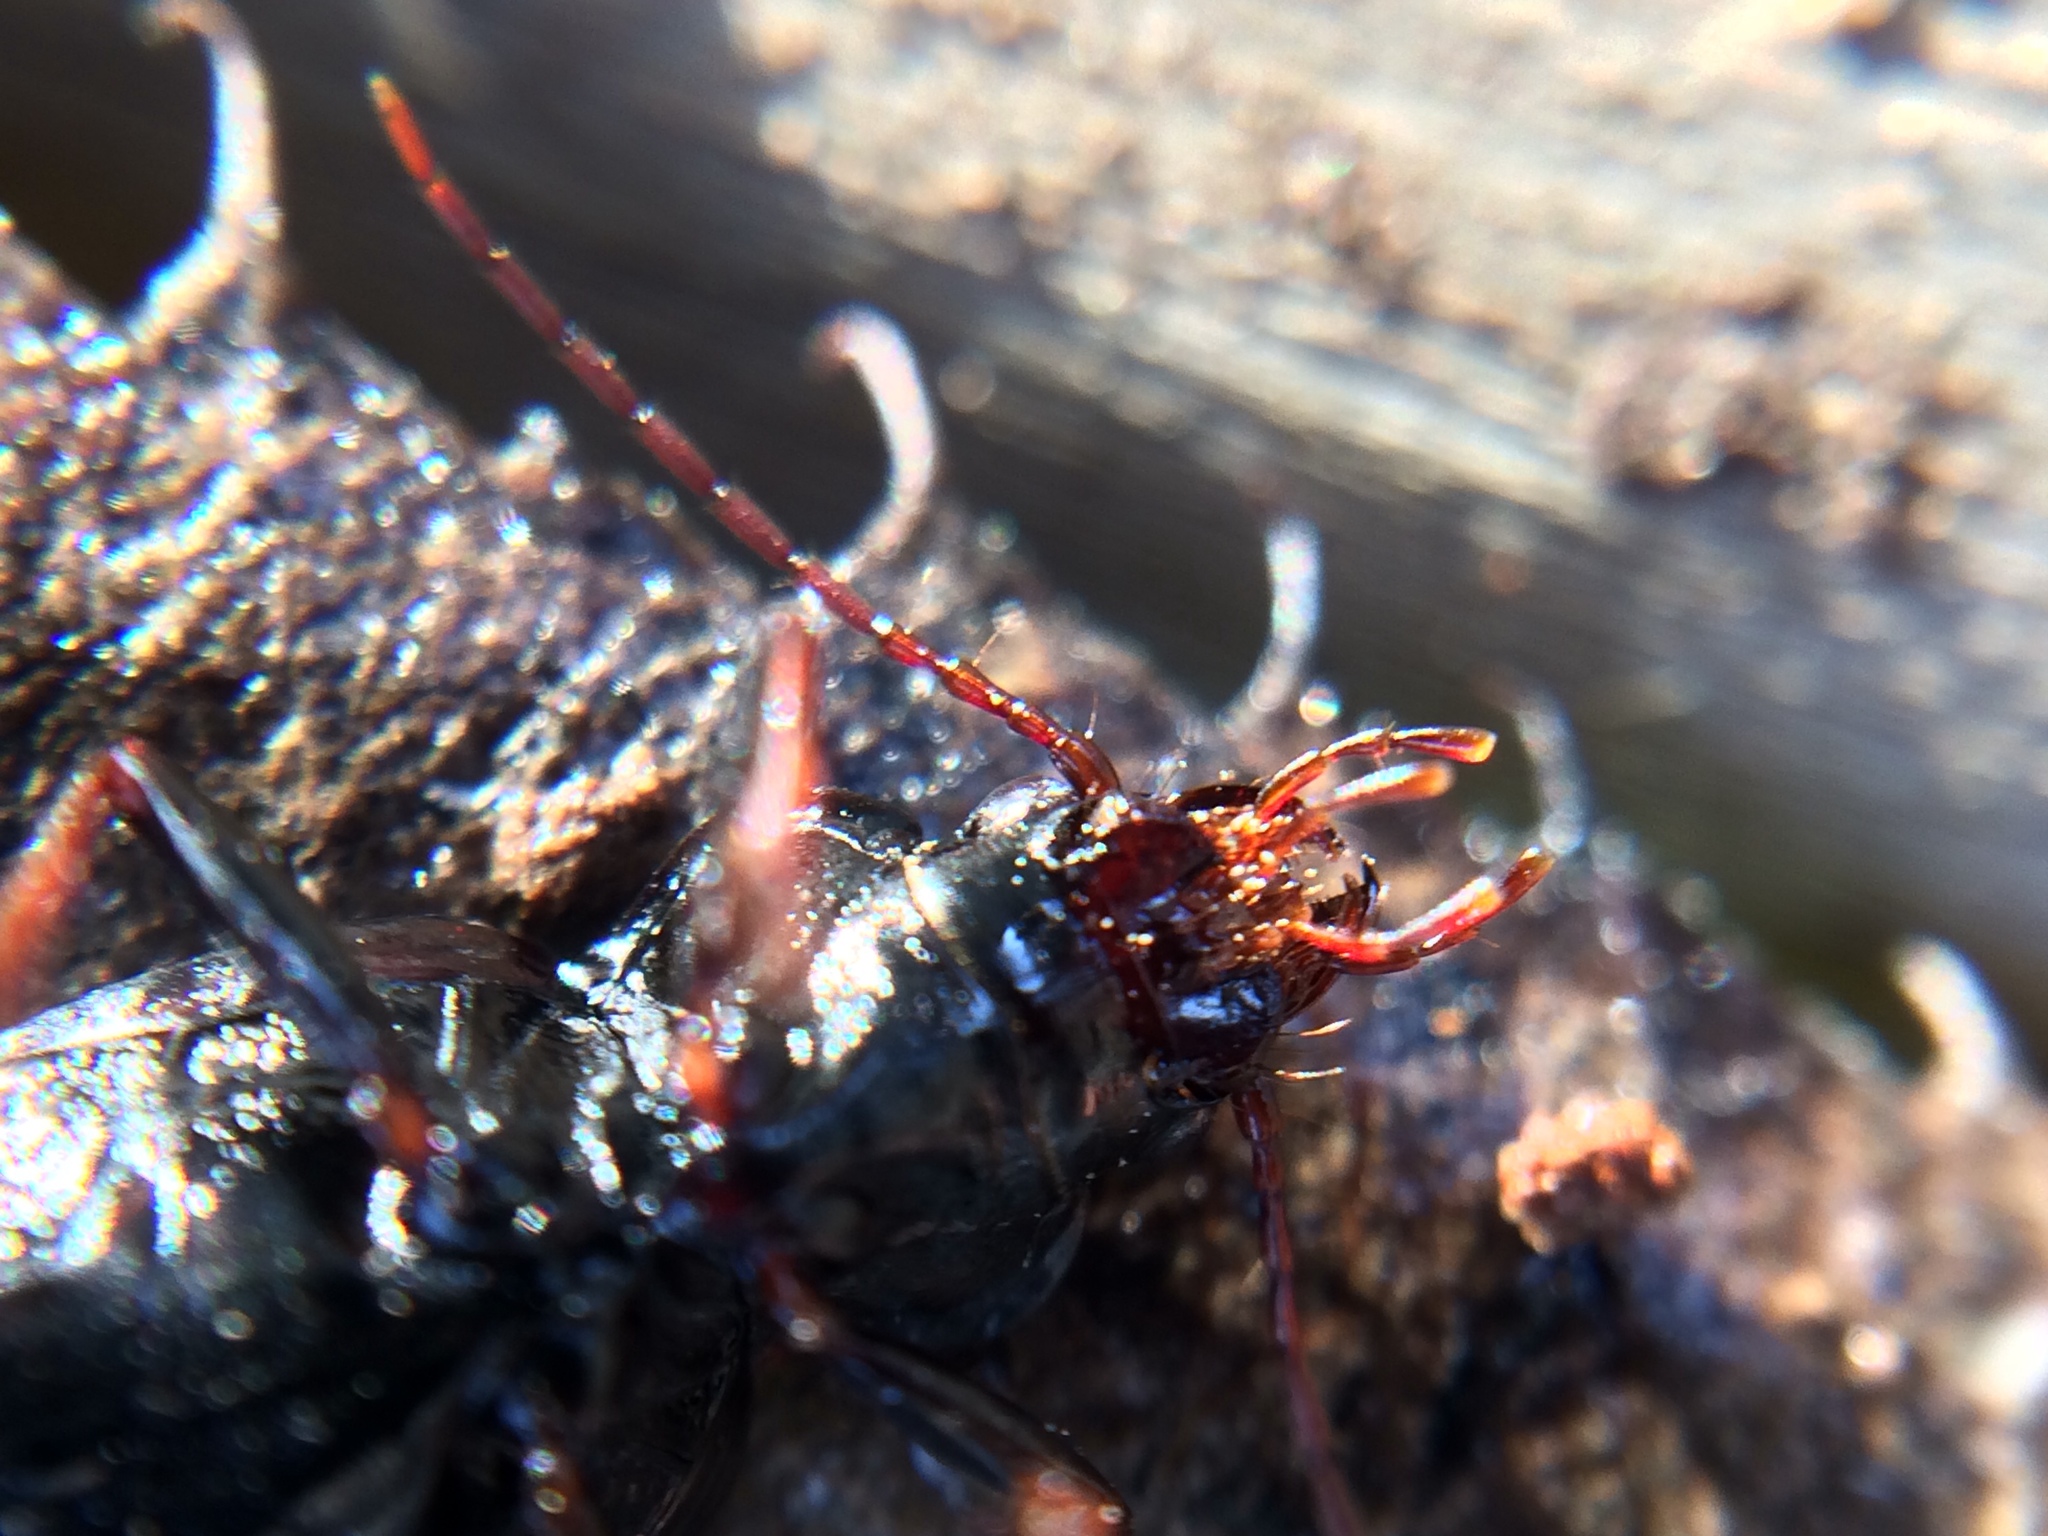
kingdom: Animalia
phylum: Arthropoda
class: Insecta
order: Coleoptera
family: Carabidae
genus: Nebria
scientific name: Nebria brevicollis
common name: Short-necked gazelle beetle
